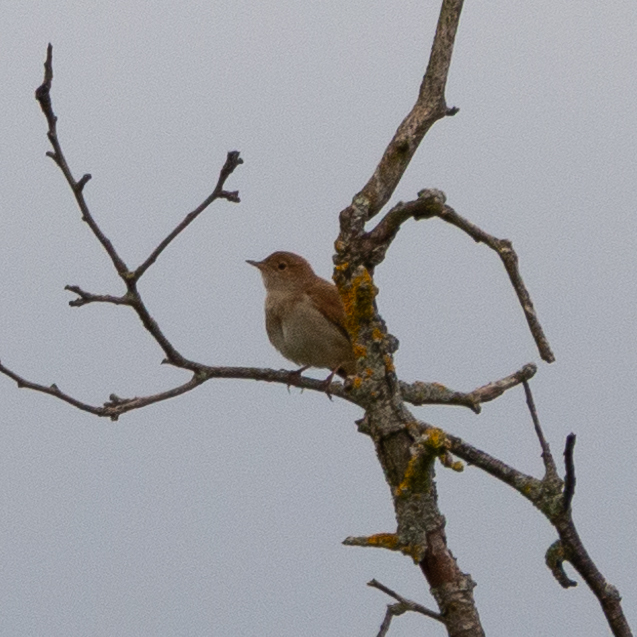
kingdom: Animalia
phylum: Chordata
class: Aves
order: Passeriformes
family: Muscicapidae
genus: Luscinia
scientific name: Luscinia megarhynchos
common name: Common nightingale
